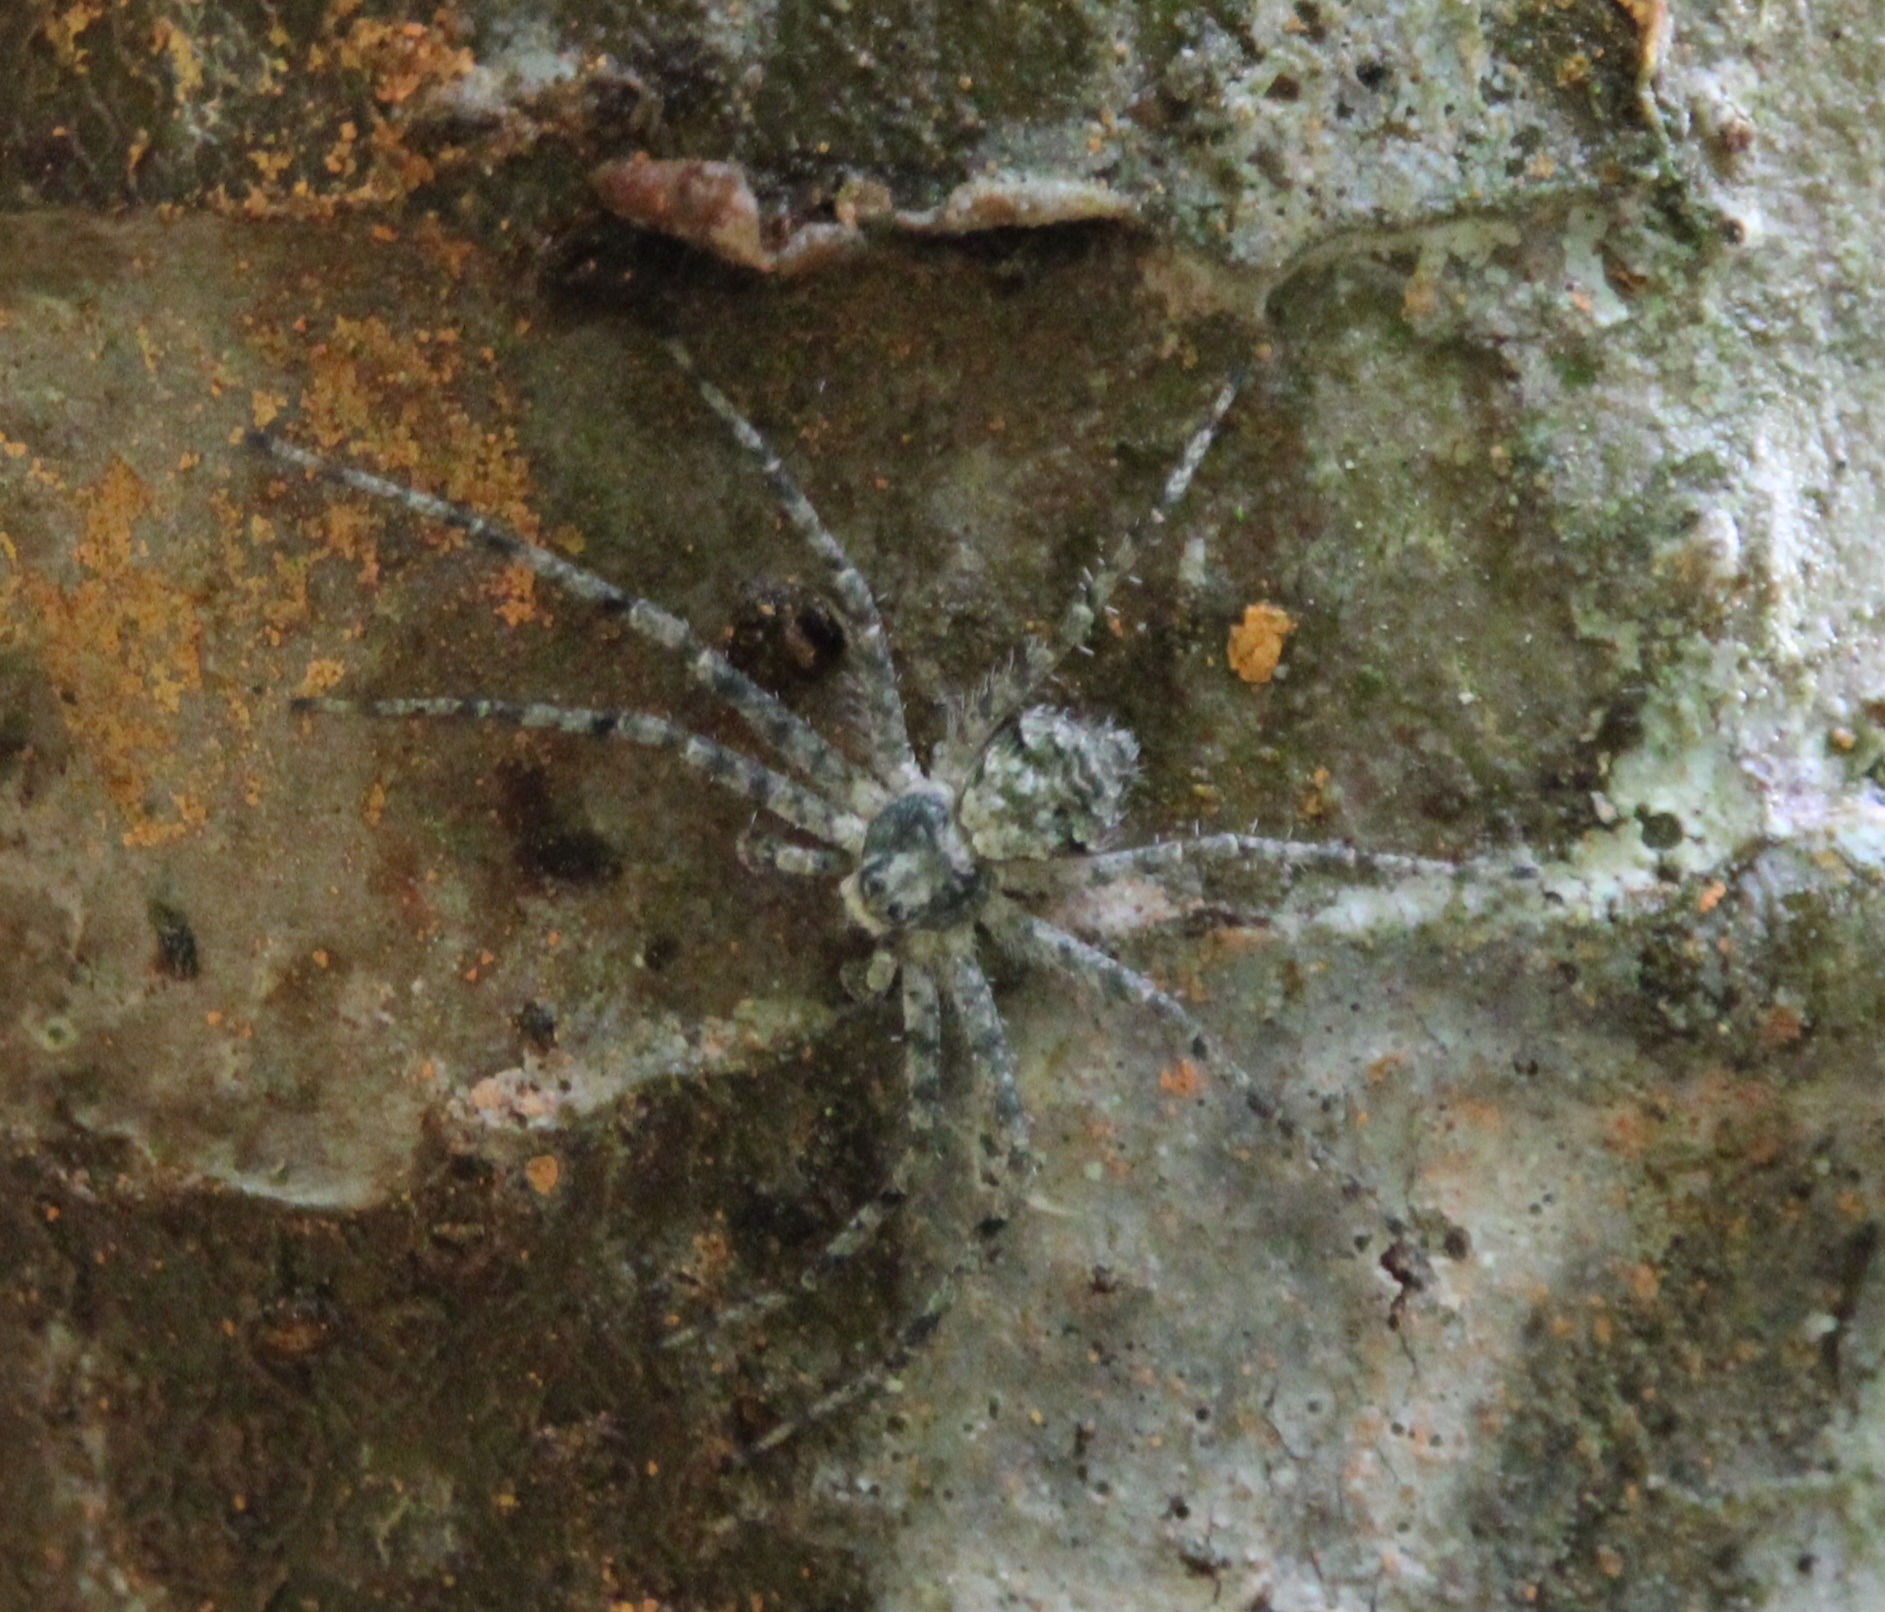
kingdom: Animalia
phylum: Arthropoda
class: Arachnida
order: Araneae
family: Philodromidae
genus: Philodromus
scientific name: Philodromus margaritatus
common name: Lichen running-spider
